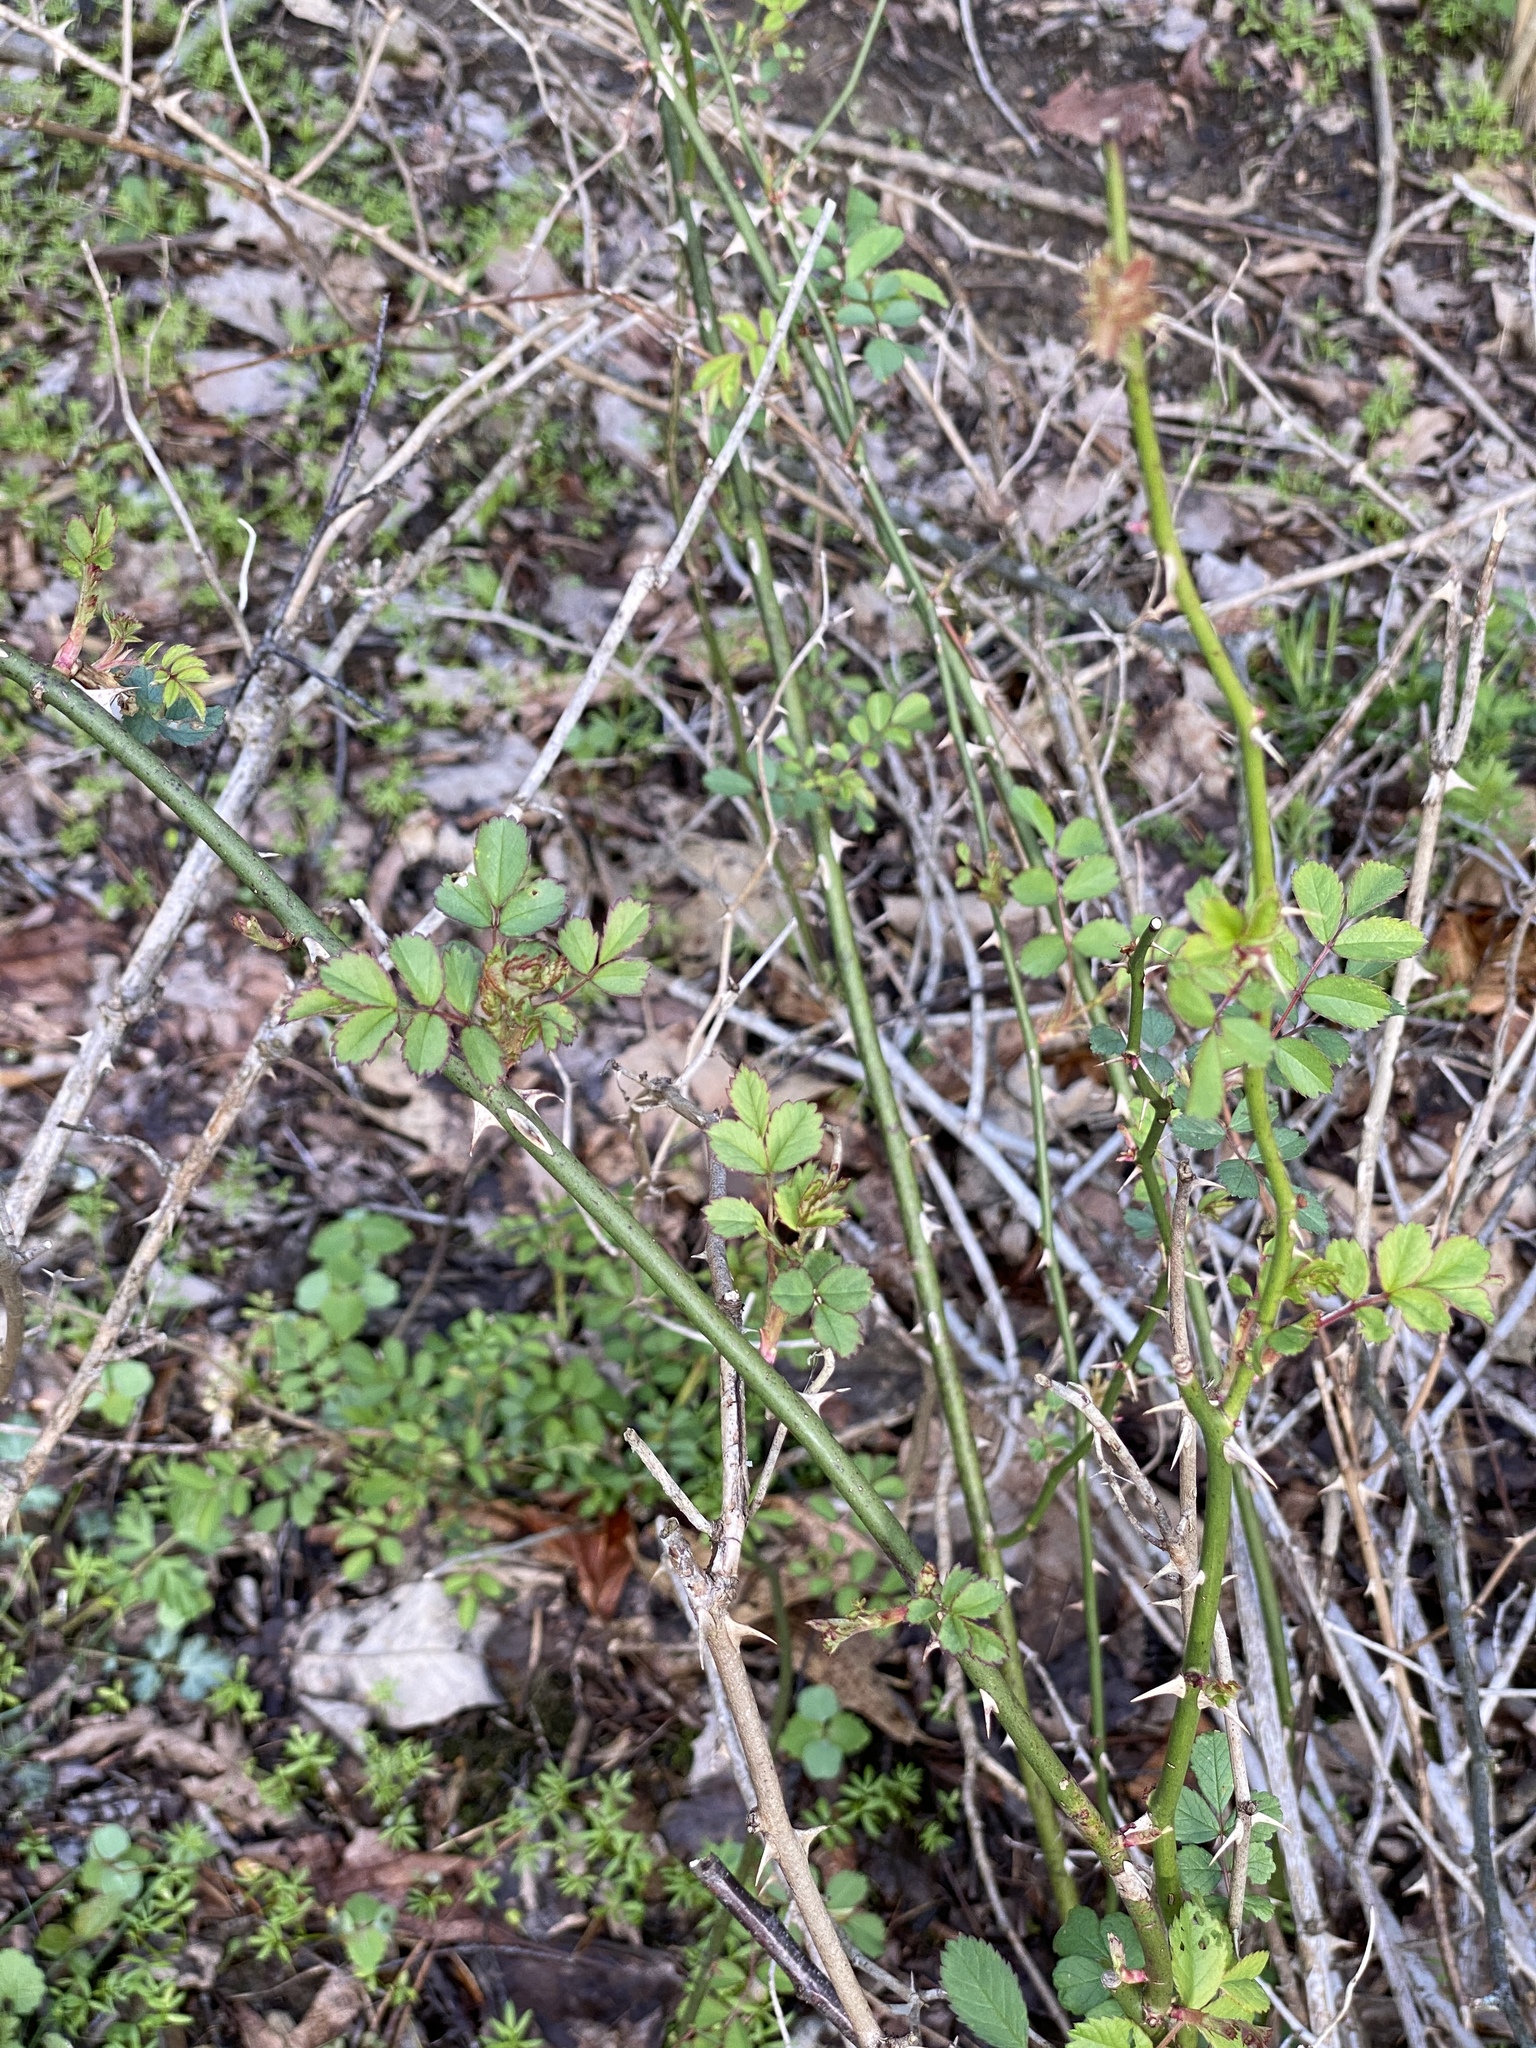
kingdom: Plantae
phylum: Tracheophyta
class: Magnoliopsida
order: Rosales
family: Rosaceae
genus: Rosa
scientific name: Rosa multiflora
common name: Multiflora rose
